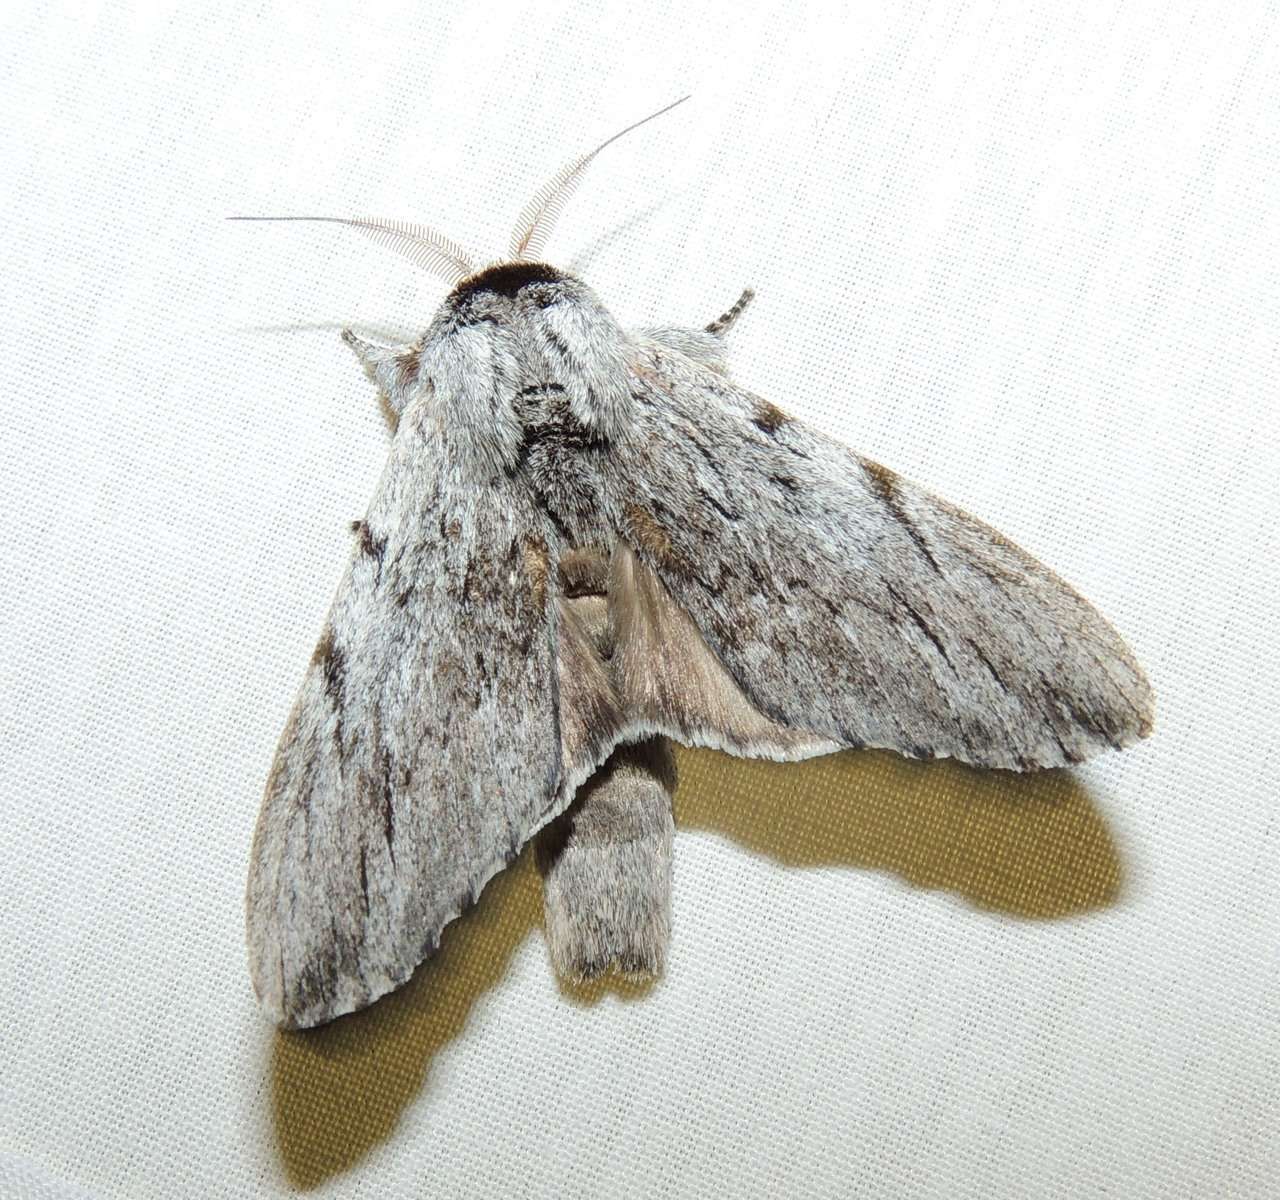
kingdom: Animalia
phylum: Arthropoda
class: Insecta
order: Lepidoptera
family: Notodontidae
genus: Destolmia
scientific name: Destolmia lineata
